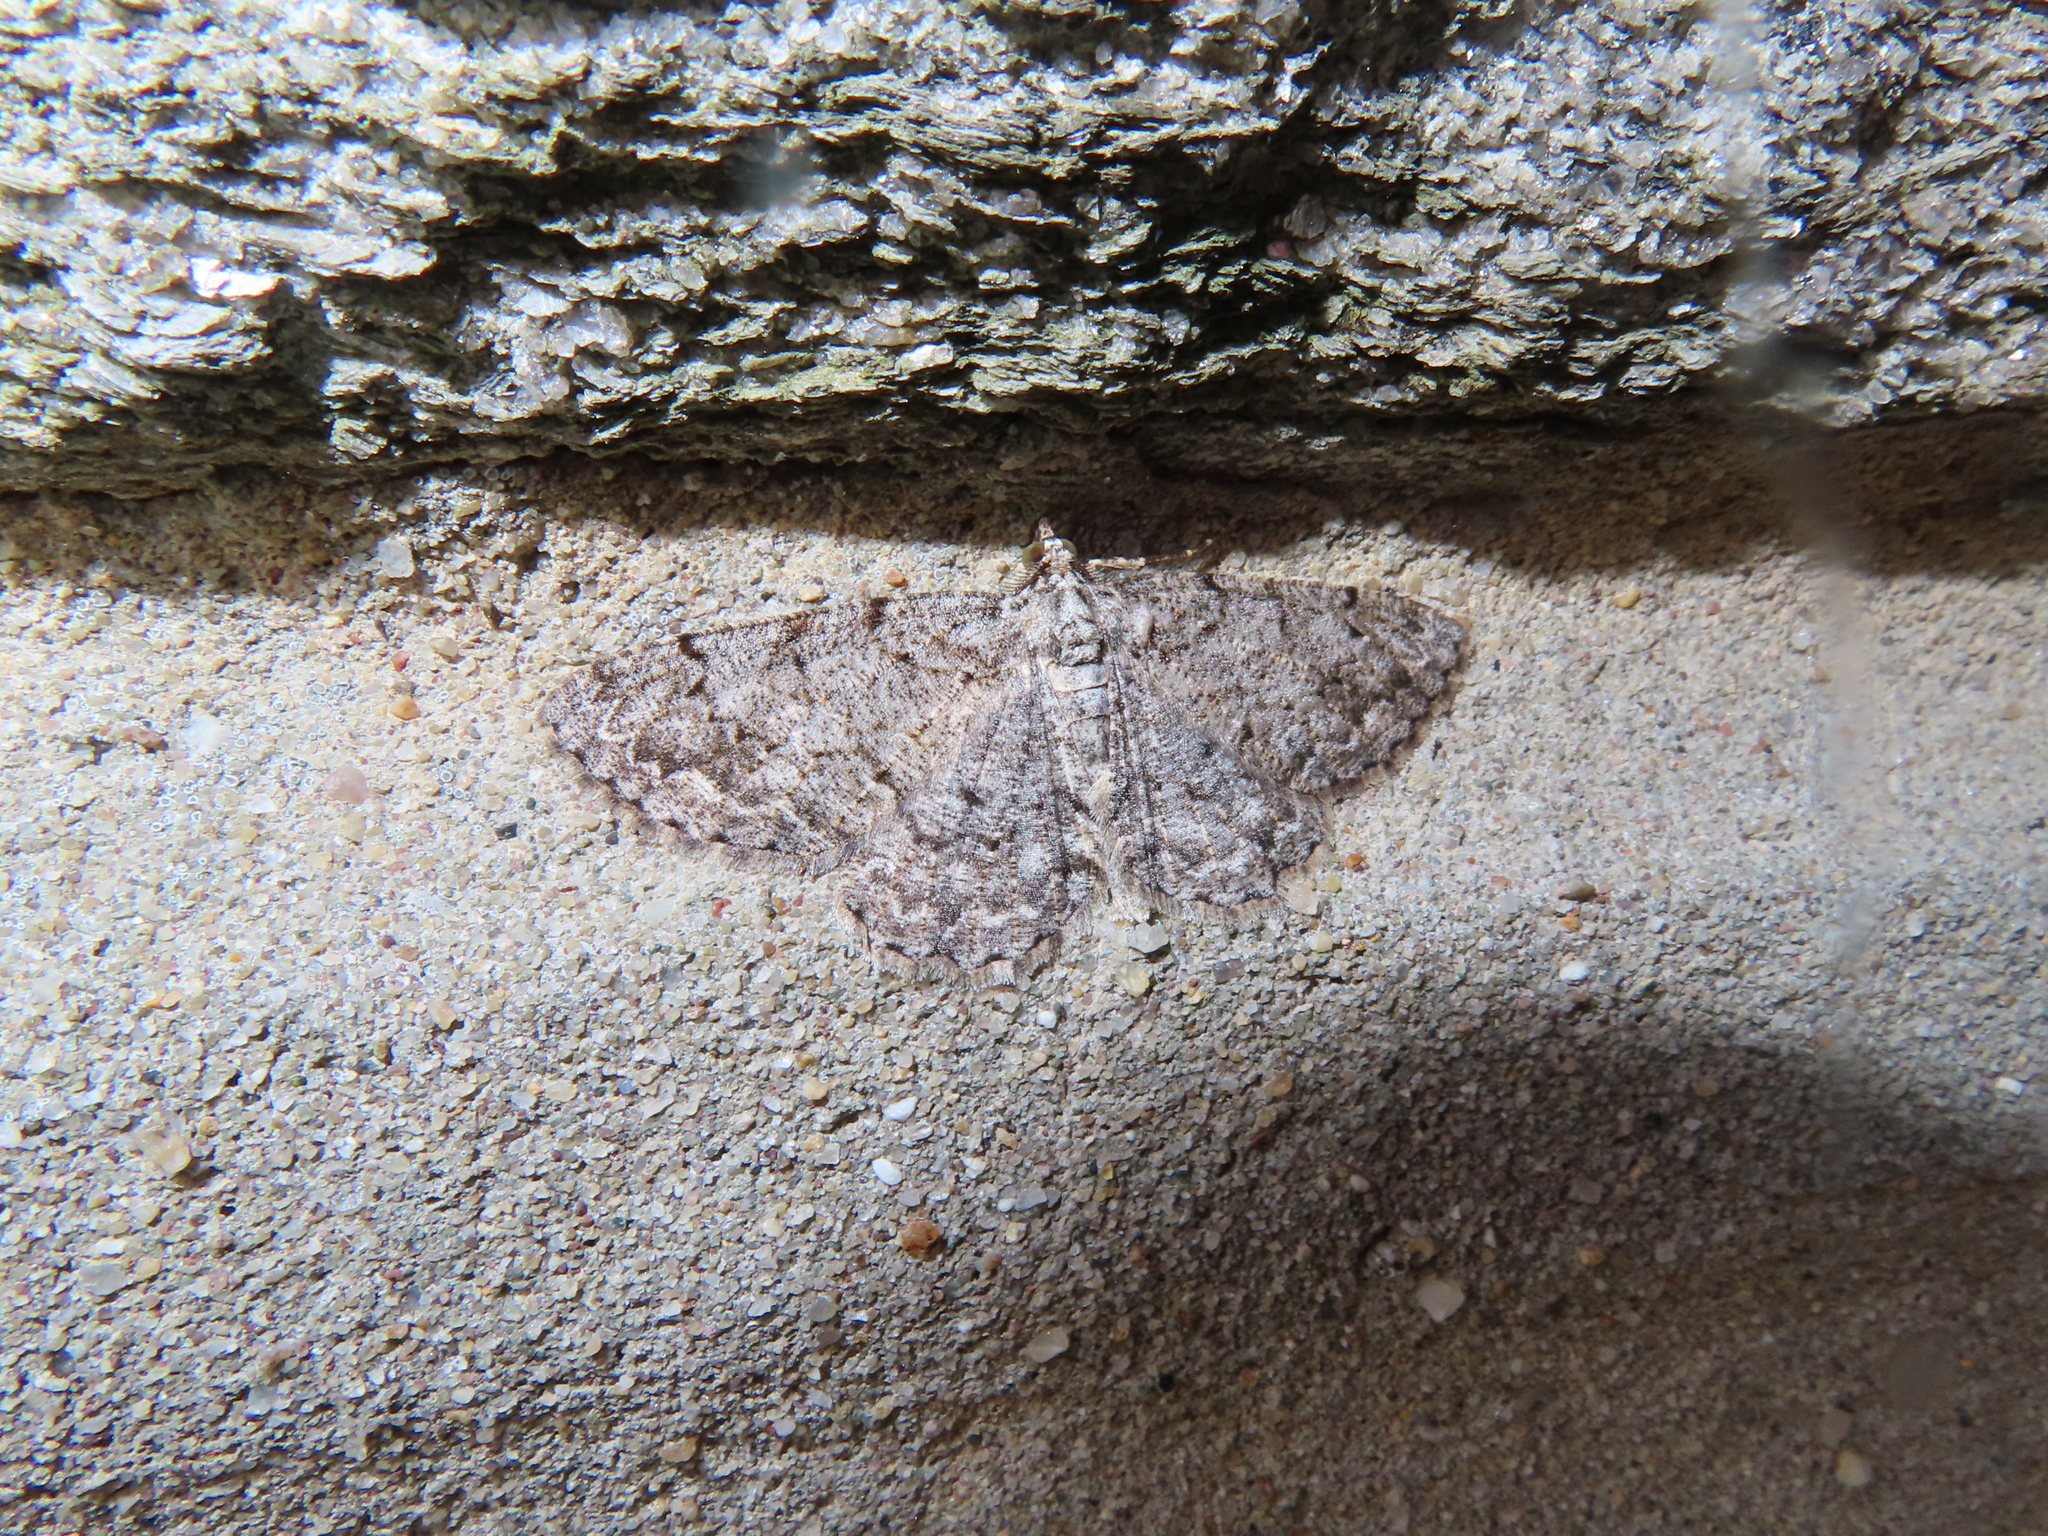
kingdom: Animalia
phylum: Arthropoda
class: Insecta
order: Lepidoptera
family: Geometridae
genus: Protoboarmia
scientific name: Protoboarmia porcelaria
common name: Porcelain gray
